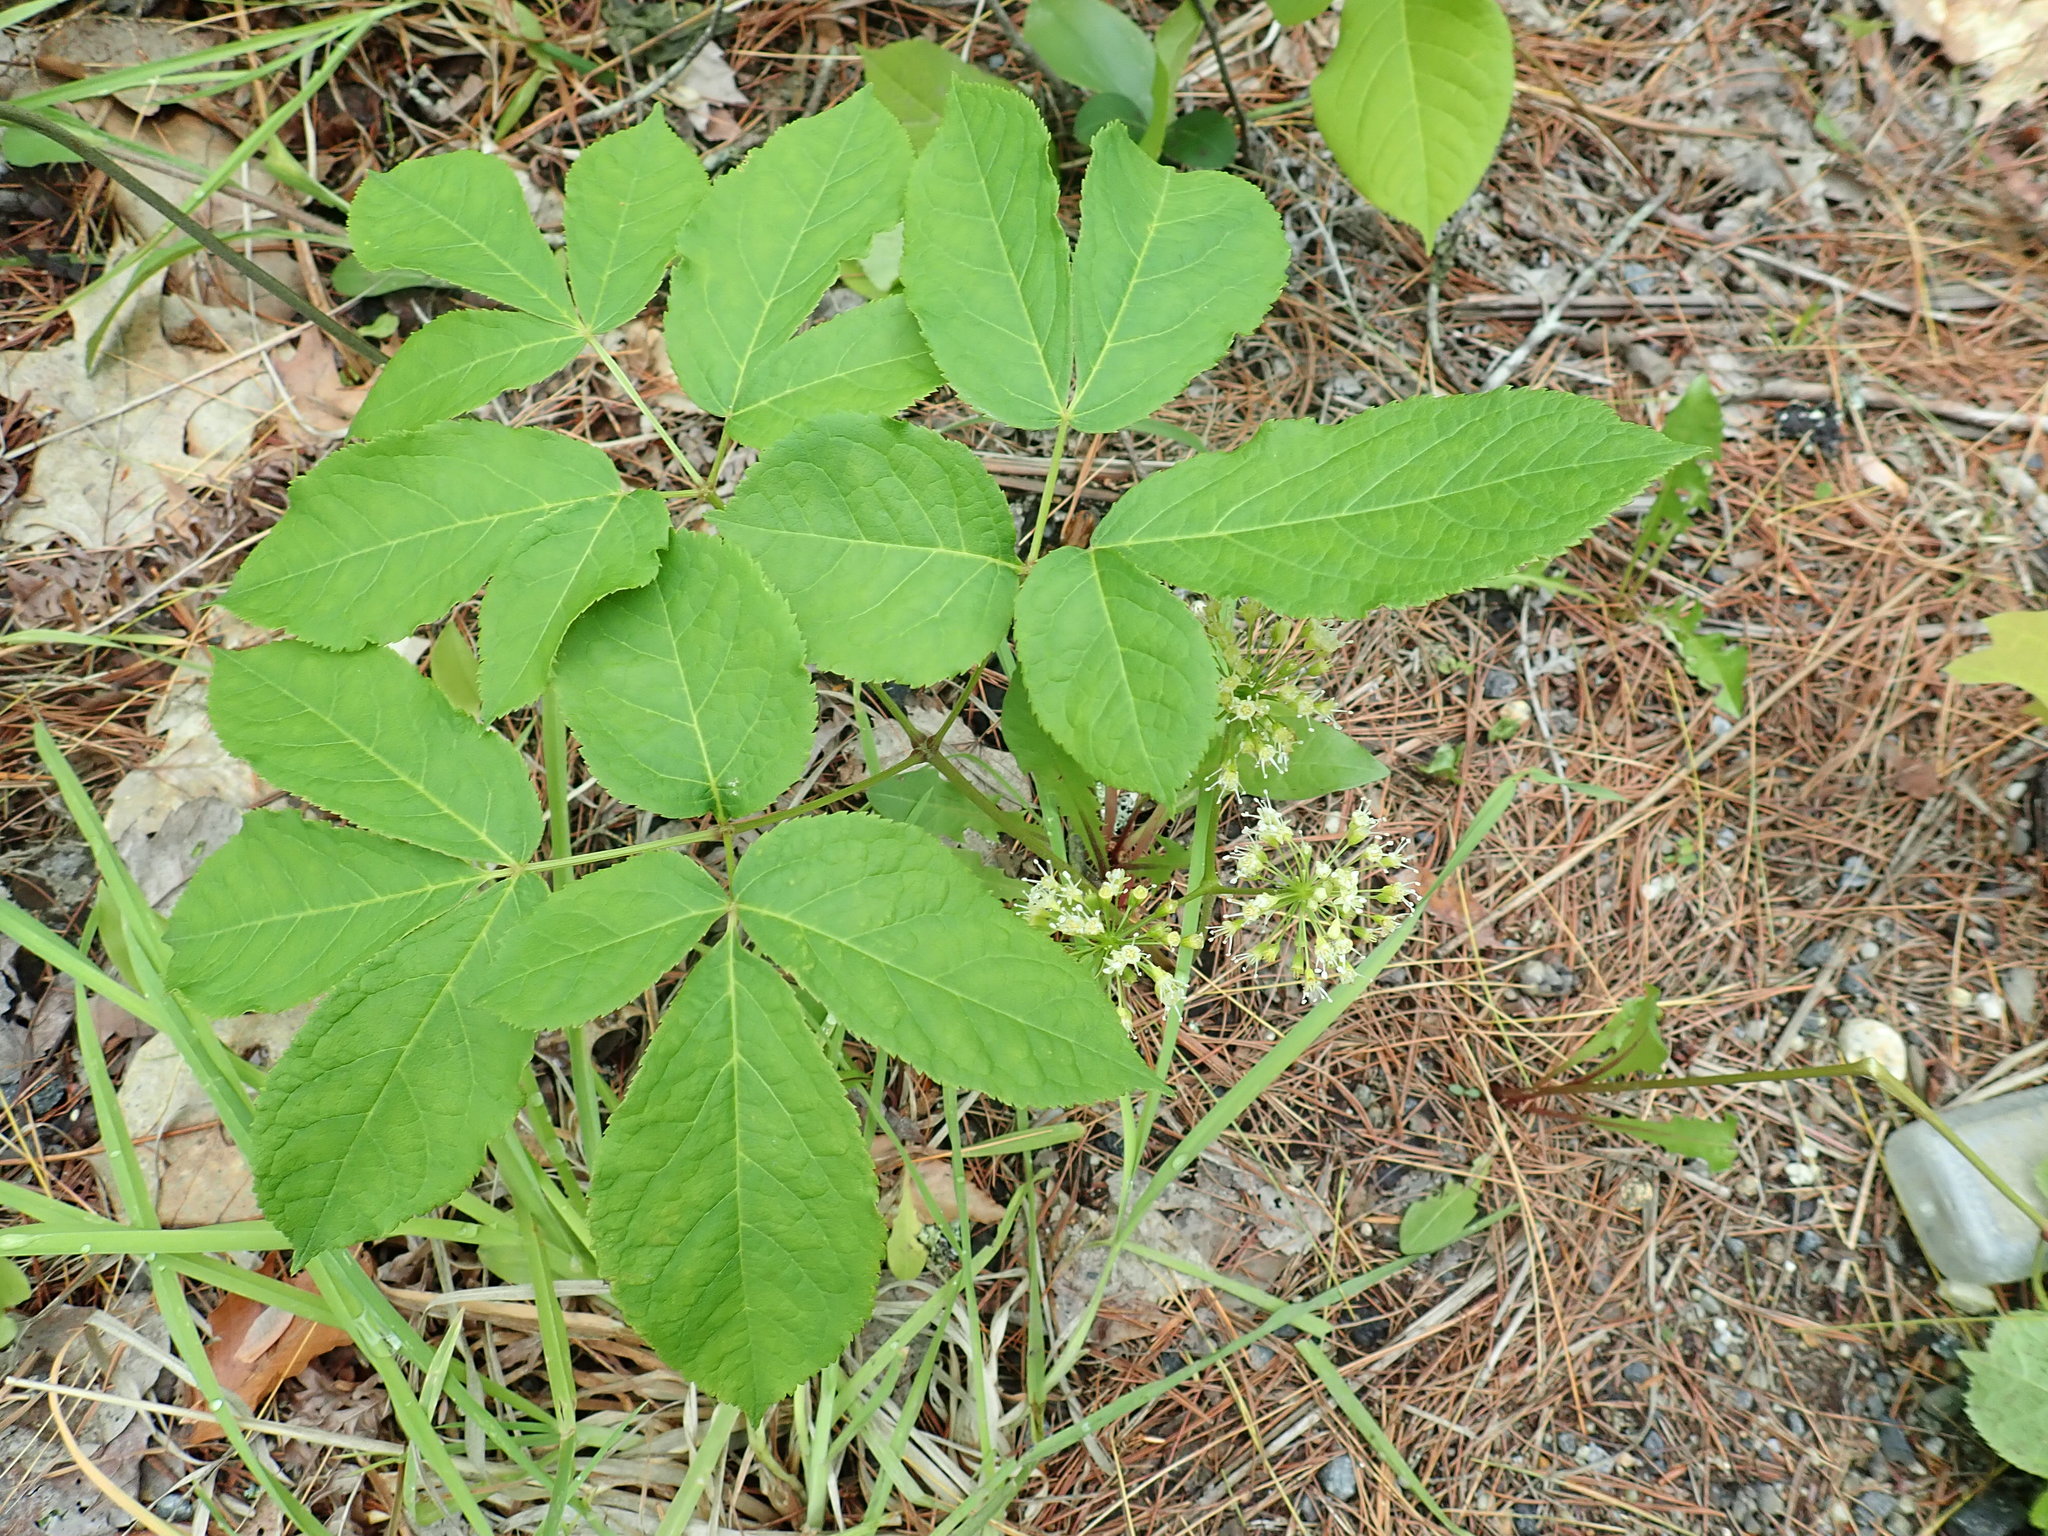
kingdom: Plantae
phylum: Tracheophyta
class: Magnoliopsida
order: Apiales
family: Araliaceae
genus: Aralia
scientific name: Aralia nudicaulis
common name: Wild sarsaparilla
